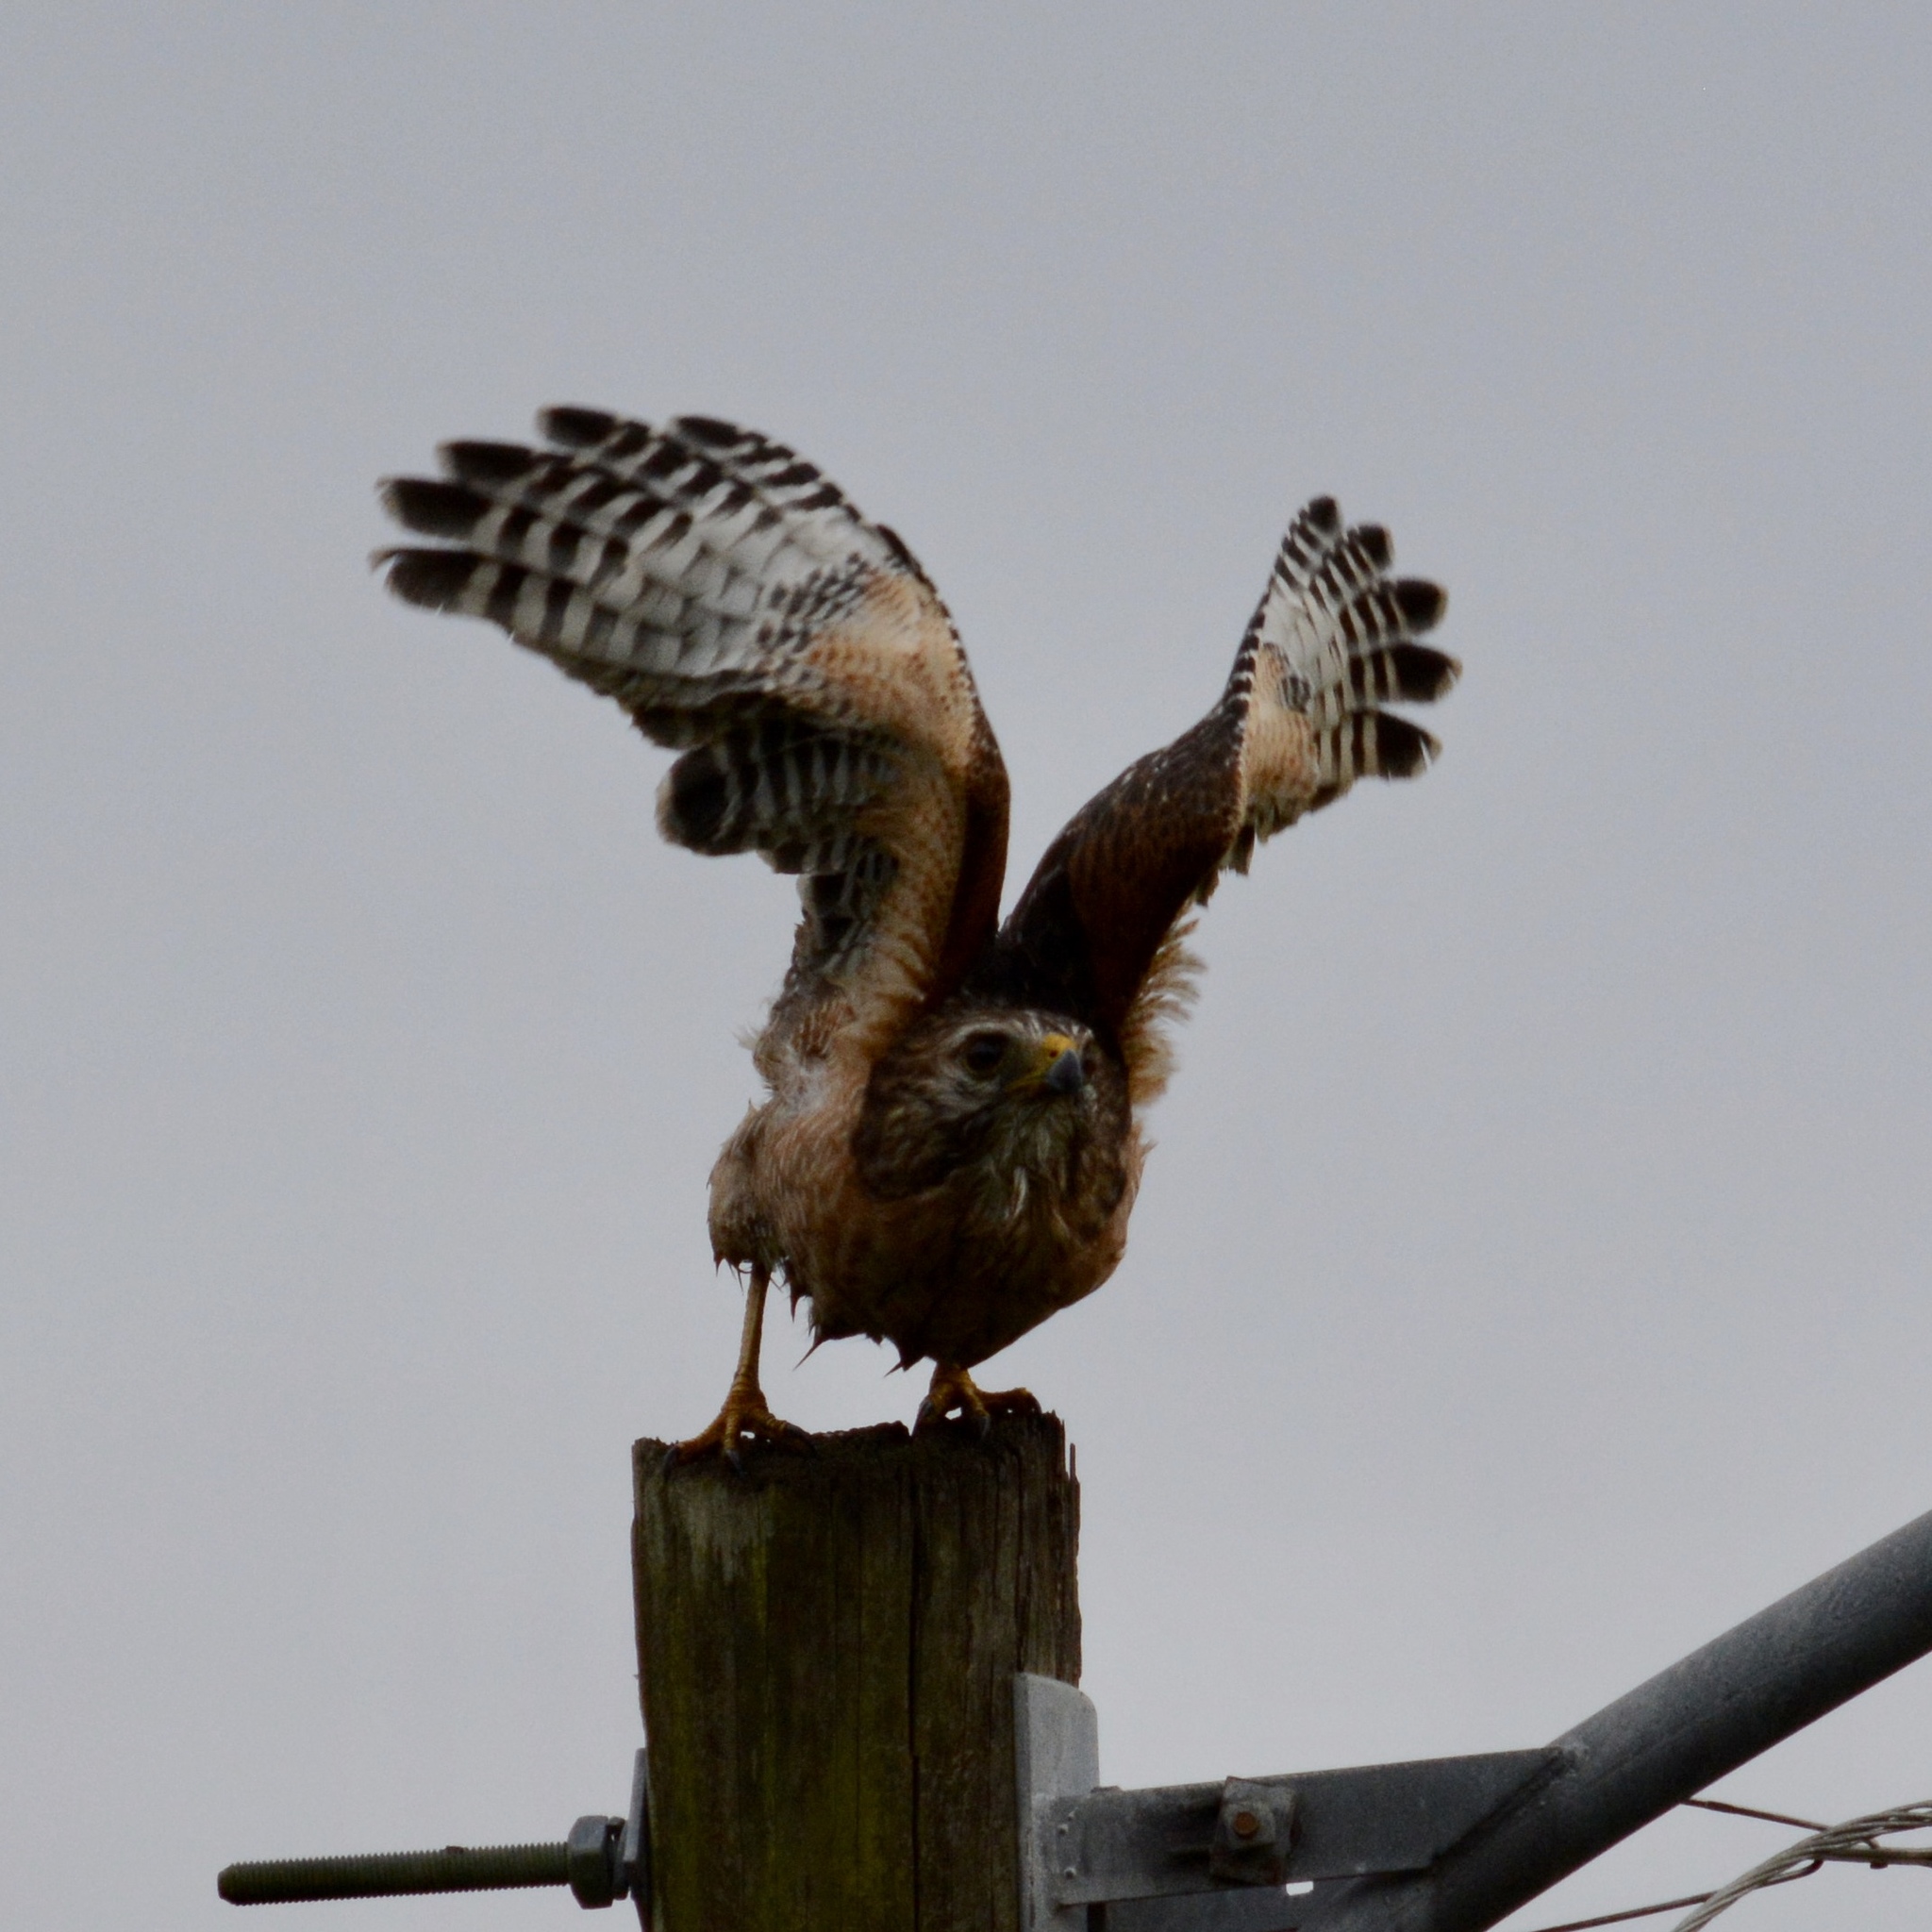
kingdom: Animalia
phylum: Chordata
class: Aves
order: Accipitriformes
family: Accipitridae
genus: Buteo
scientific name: Buteo lineatus
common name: Red-shouldered hawk
